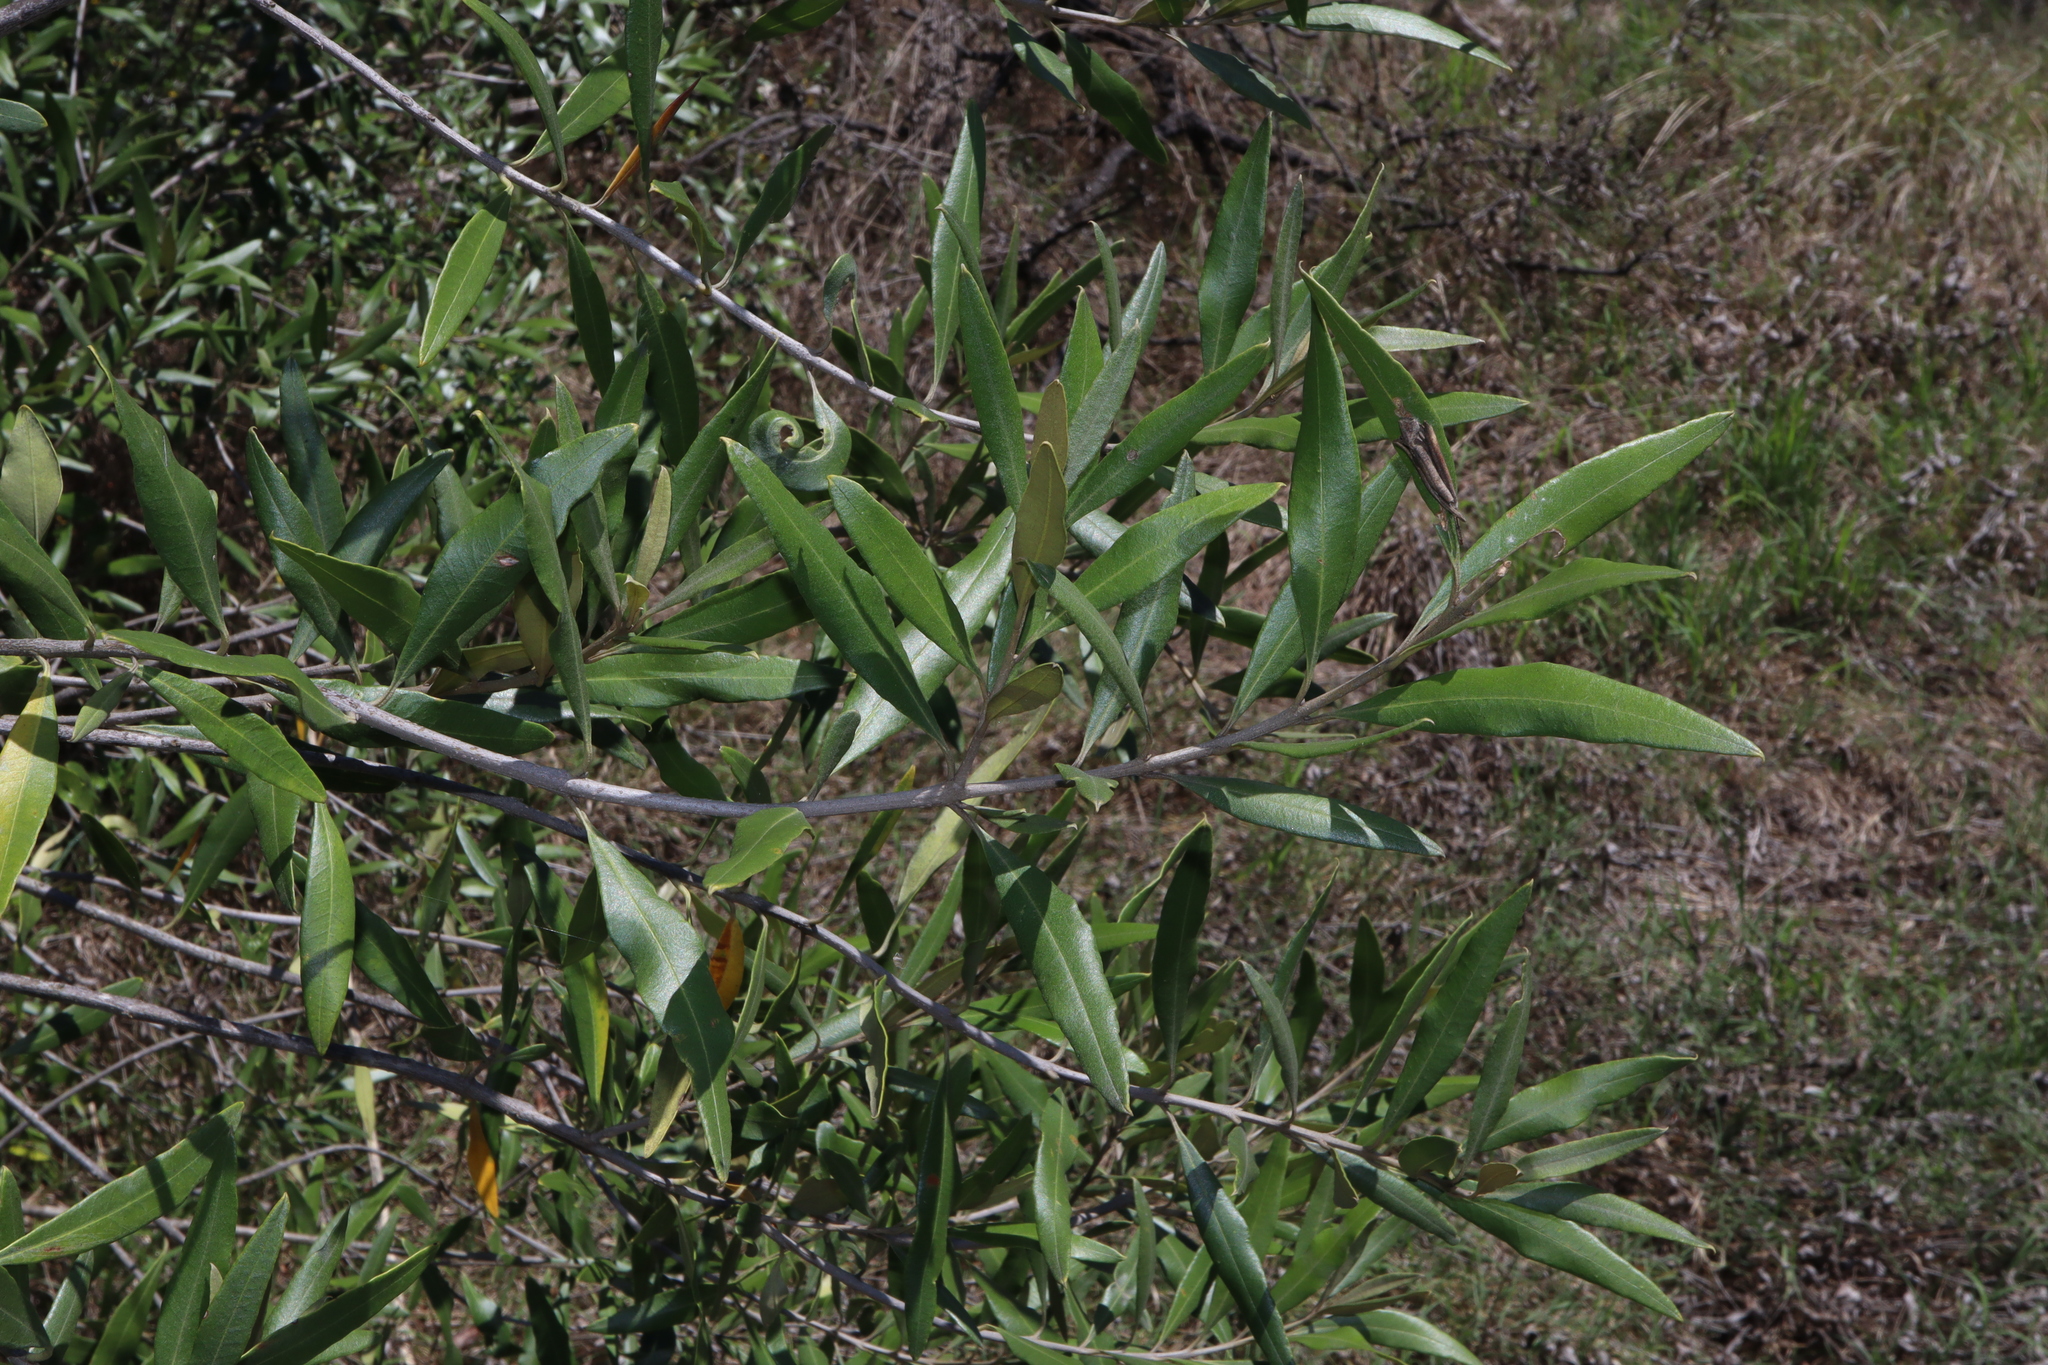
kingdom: Plantae
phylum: Tracheophyta
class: Magnoliopsida
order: Lamiales
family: Oleaceae
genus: Olea
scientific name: Olea europaea
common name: Olive
